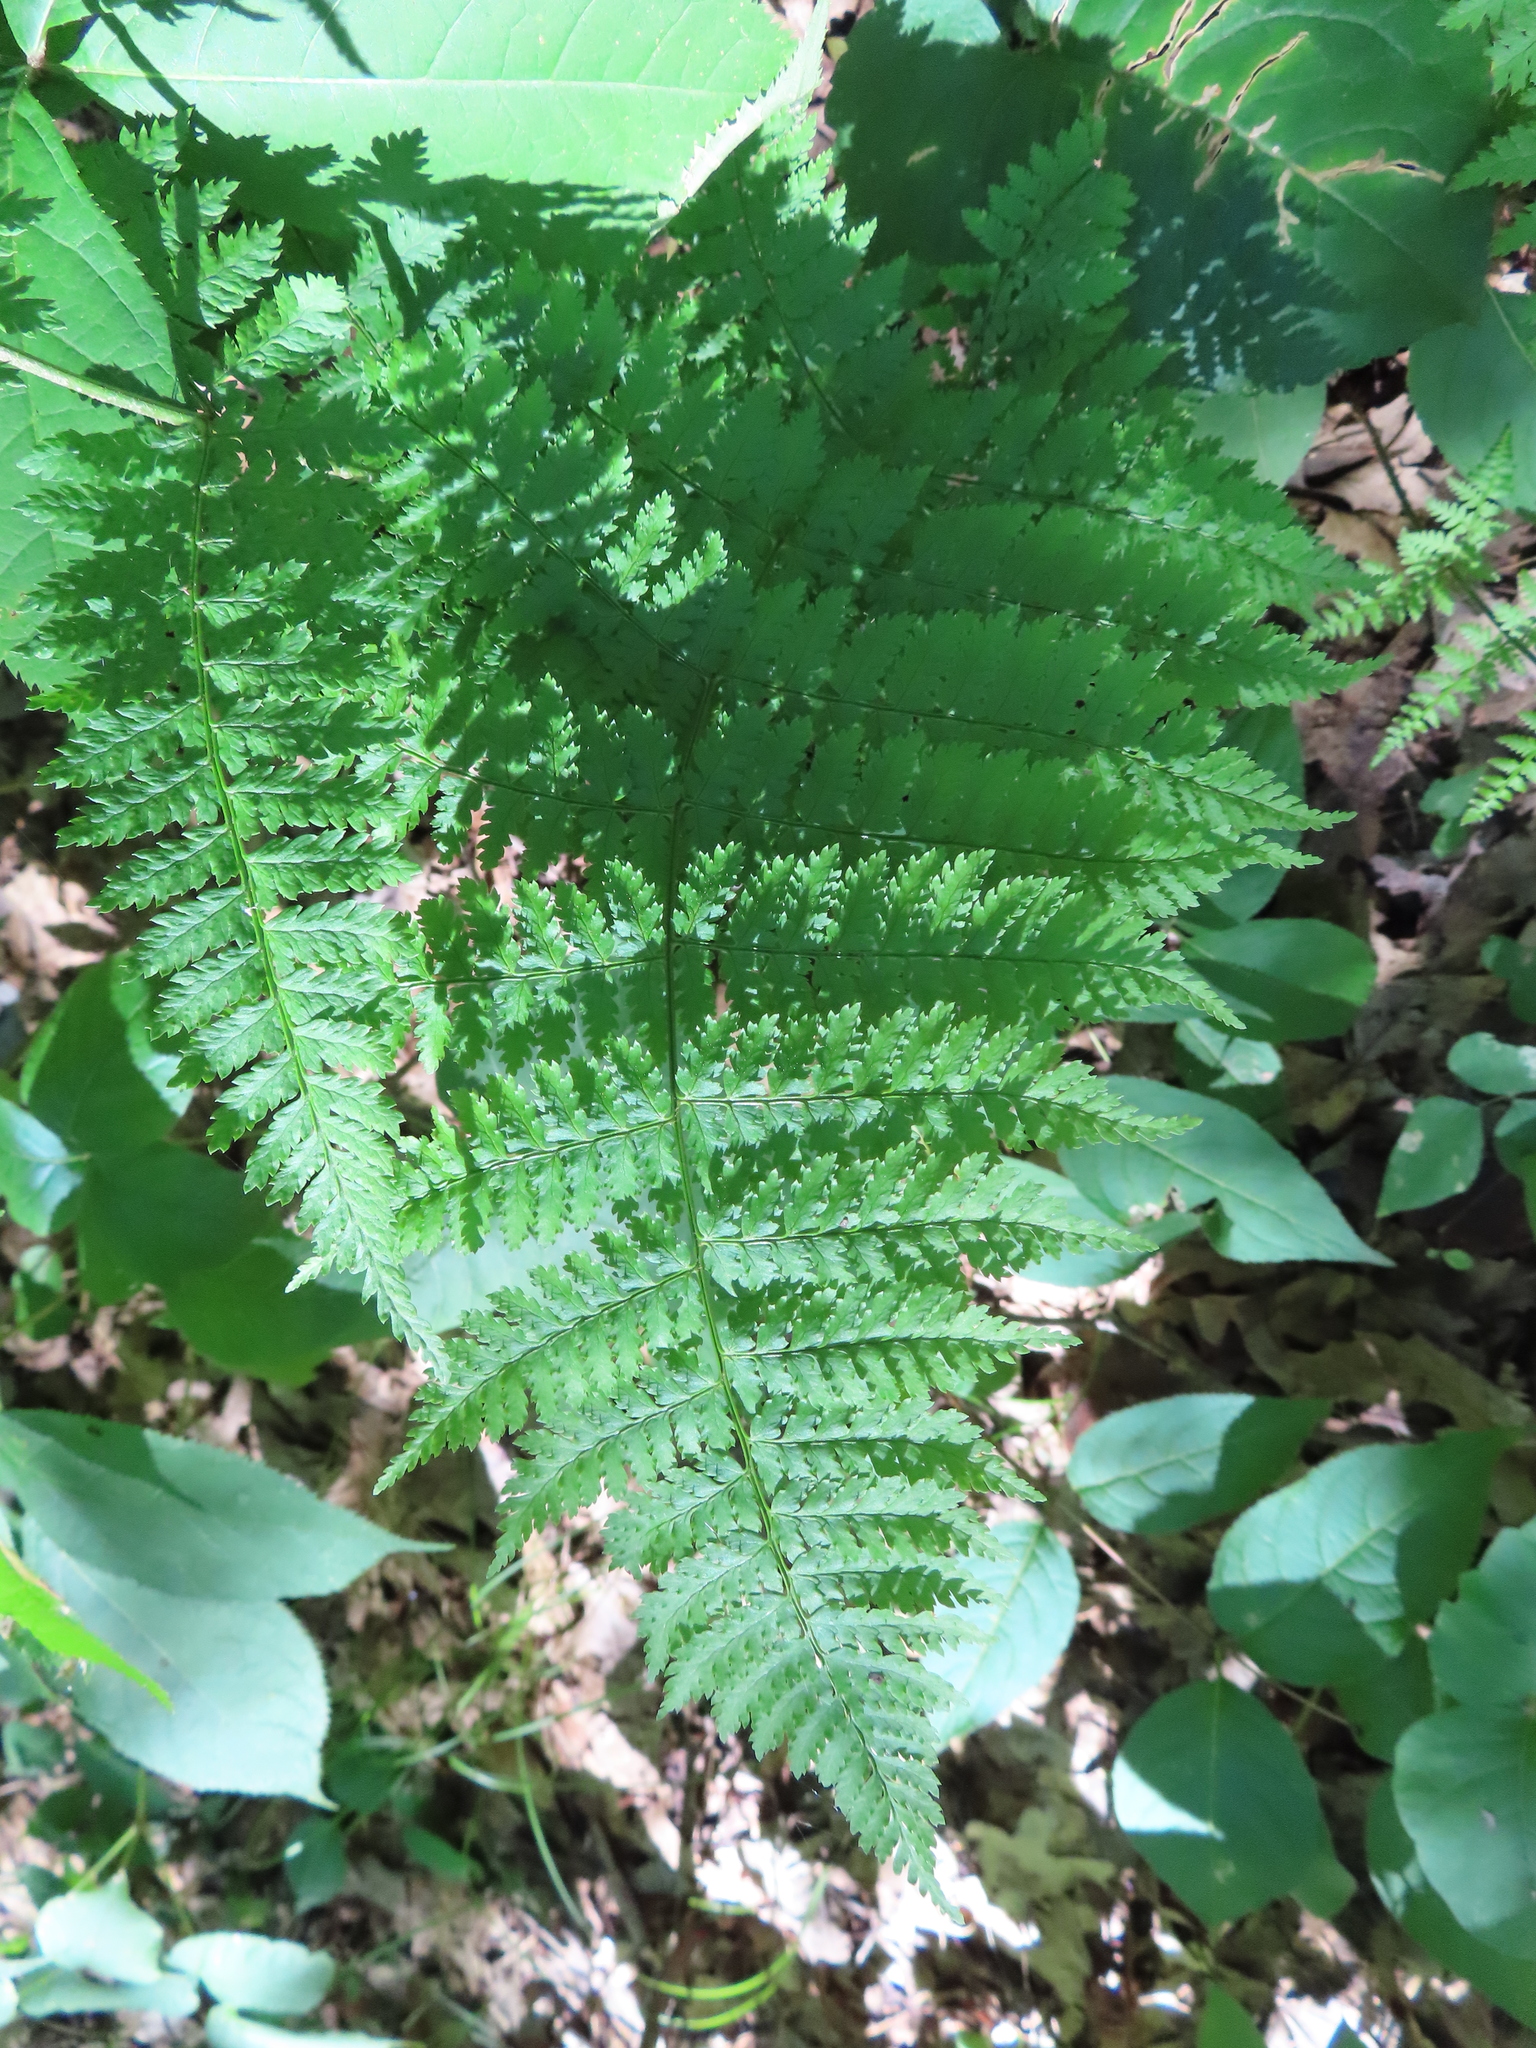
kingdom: Plantae
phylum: Tracheophyta
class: Polypodiopsida
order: Polypodiales
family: Dryopteridaceae
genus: Dryopteris
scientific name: Dryopteris intermedia
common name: Evergreen wood fern
